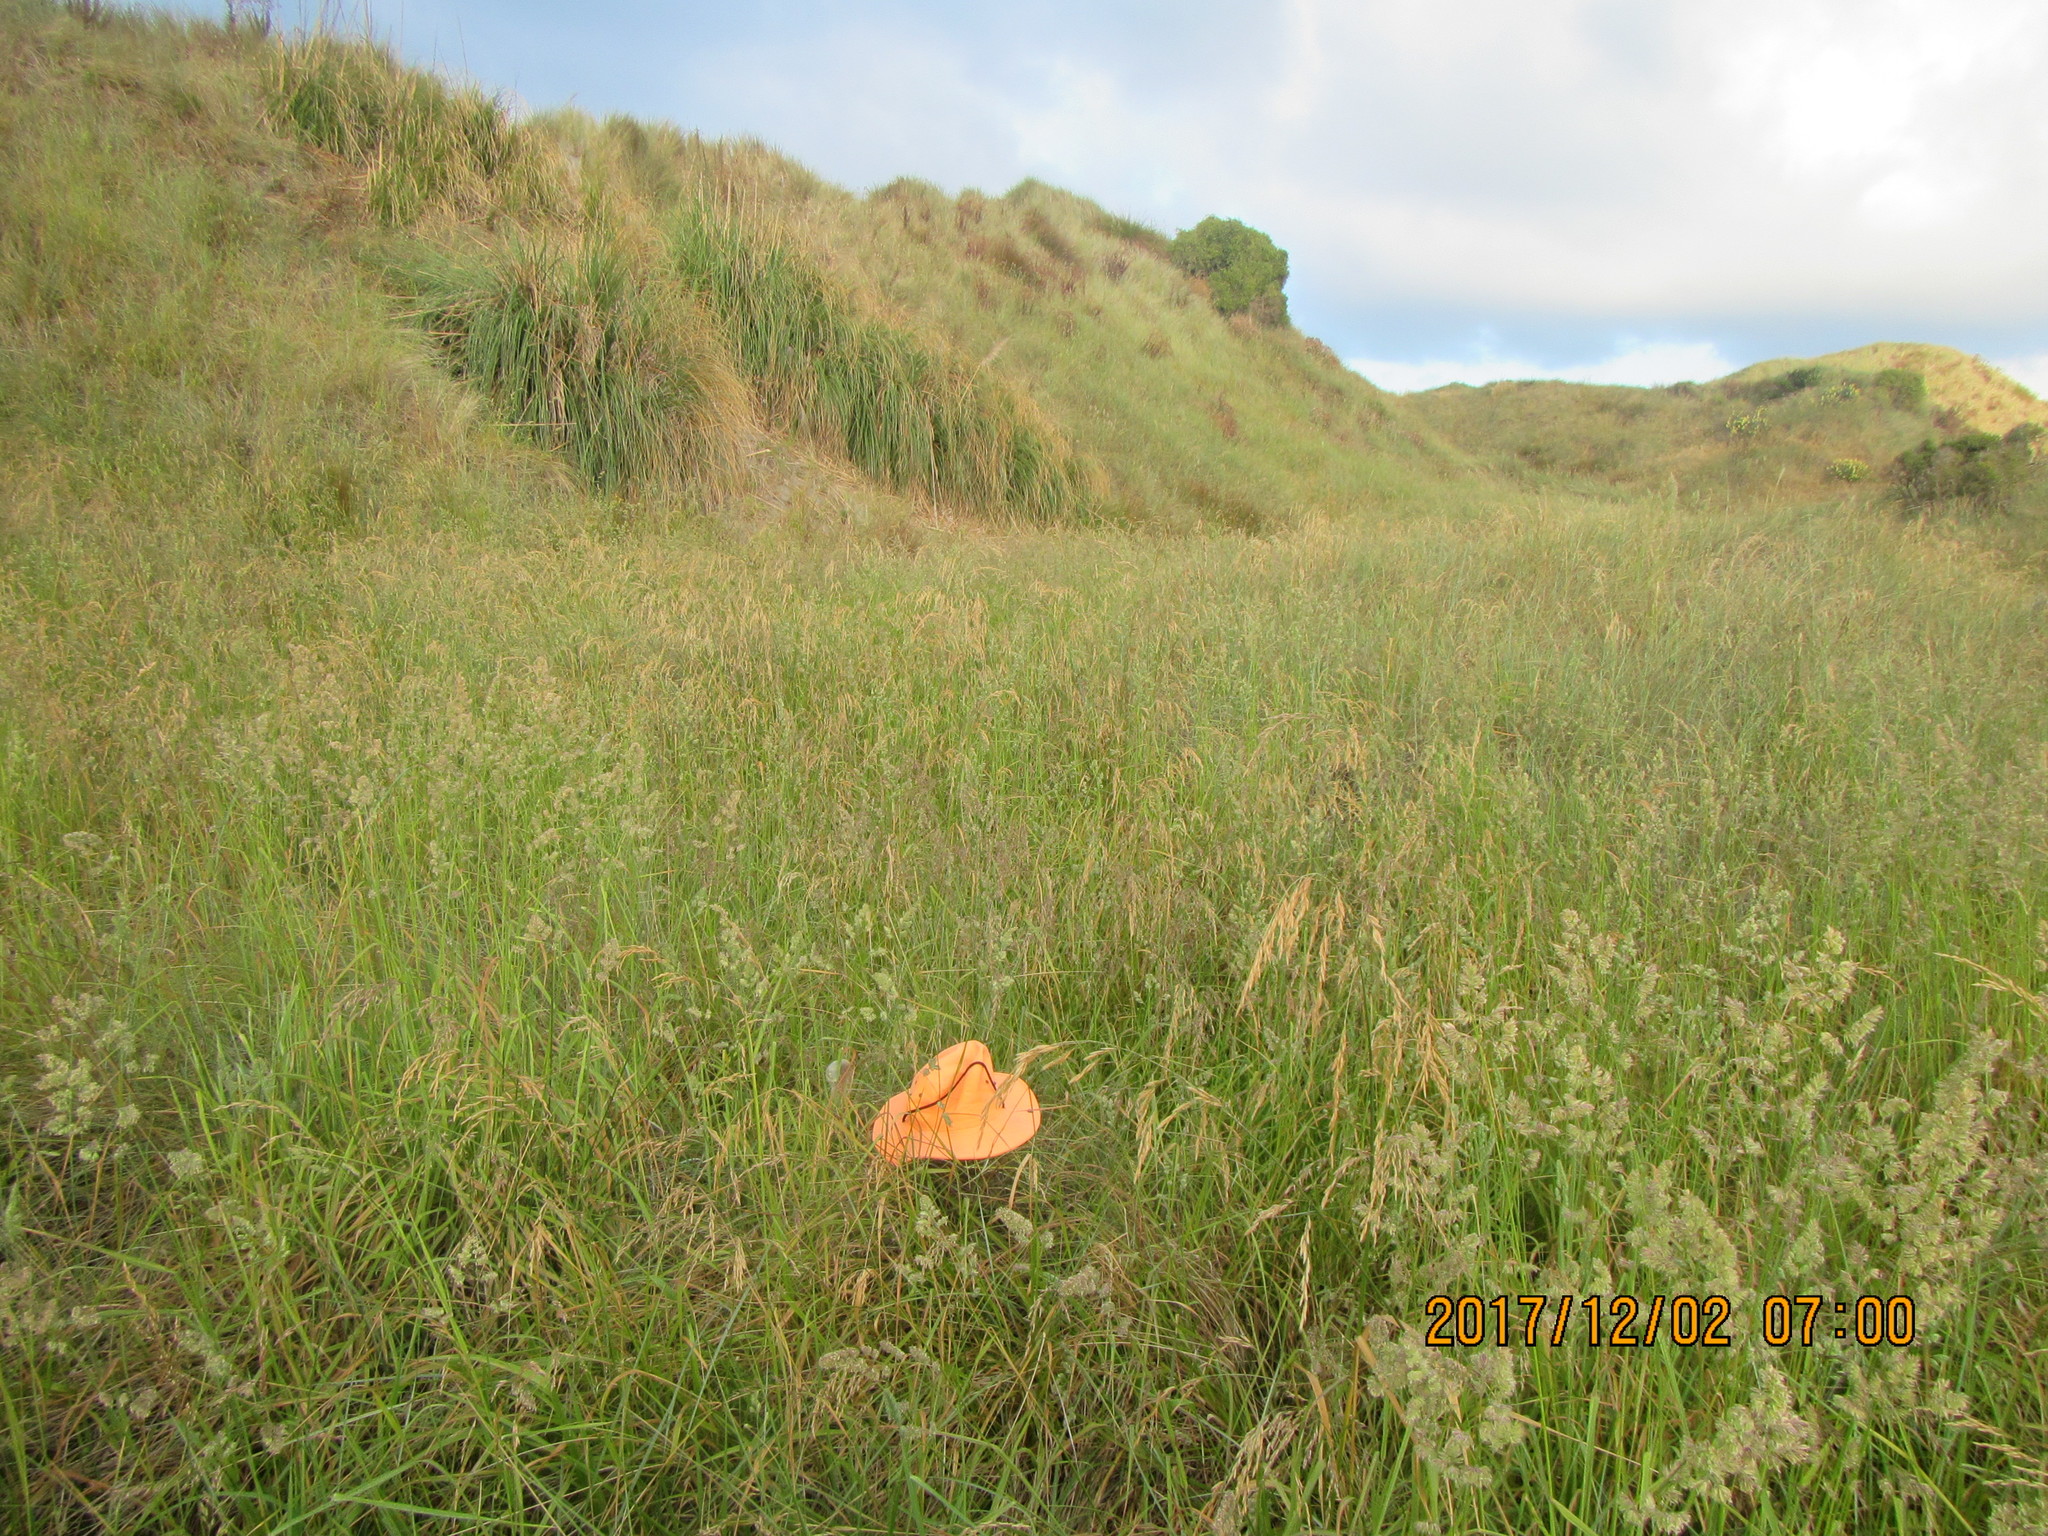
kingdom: Animalia
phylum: Arthropoda
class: Arachnida
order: Araneae
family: Pisauridae
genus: Dolomedes
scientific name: Dolomedes minor
